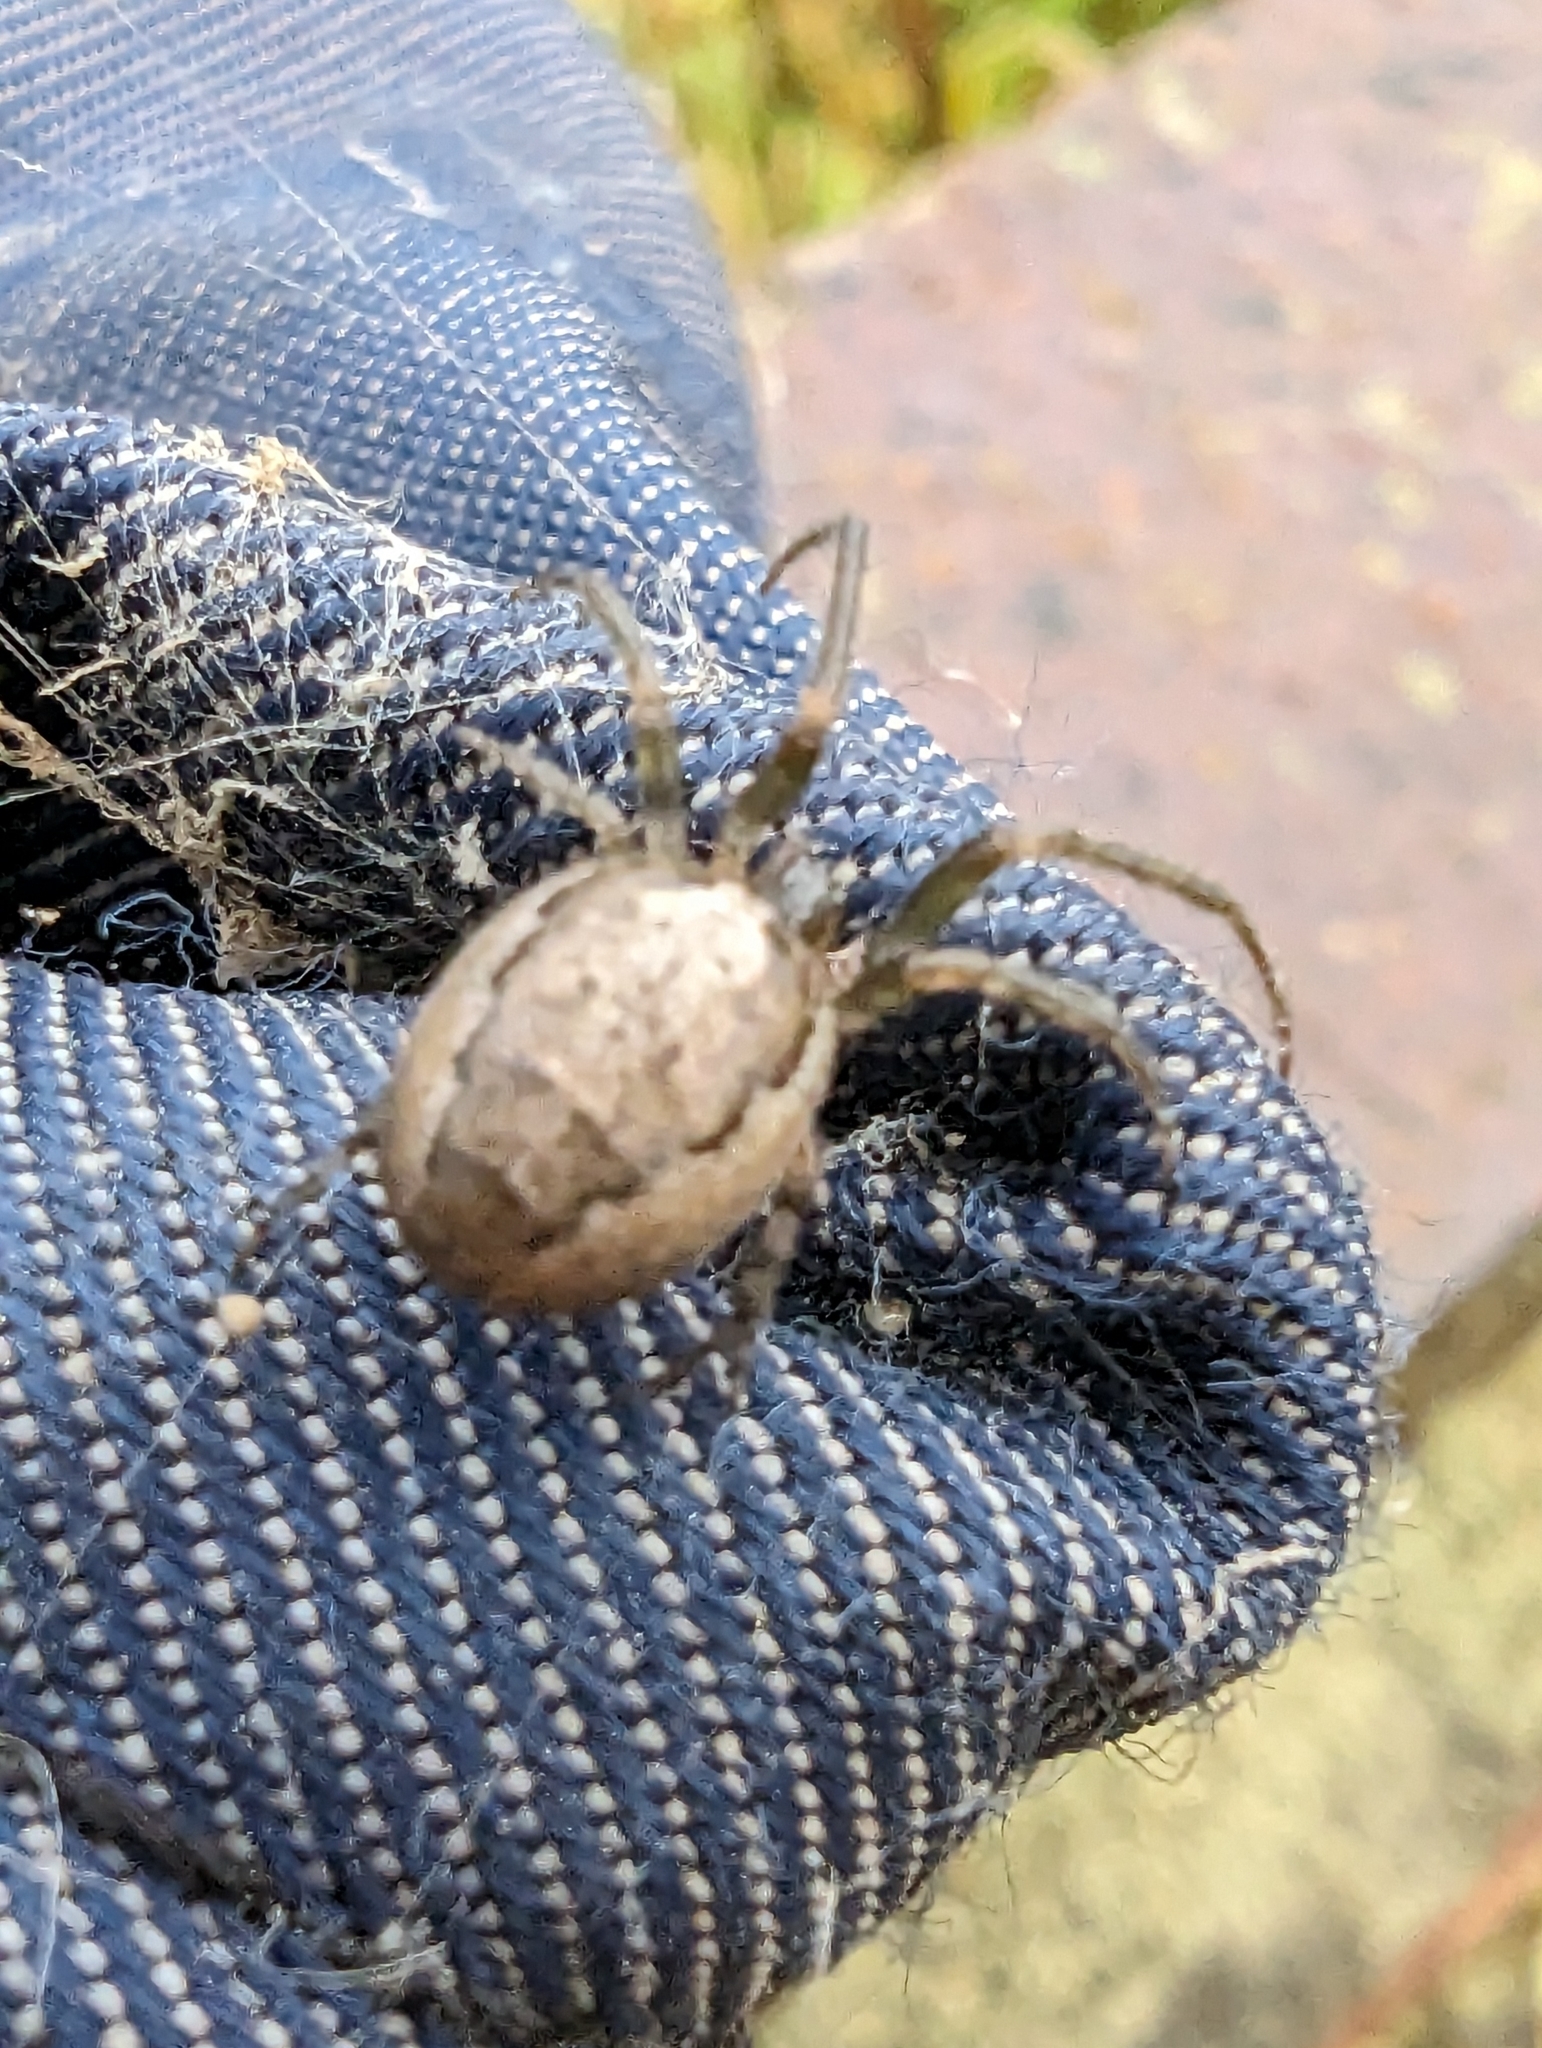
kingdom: Animalia
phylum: Arthropoda
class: Arachnida
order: Araneae
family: Araneidae
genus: Zygiella
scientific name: Zygiella x-notata
